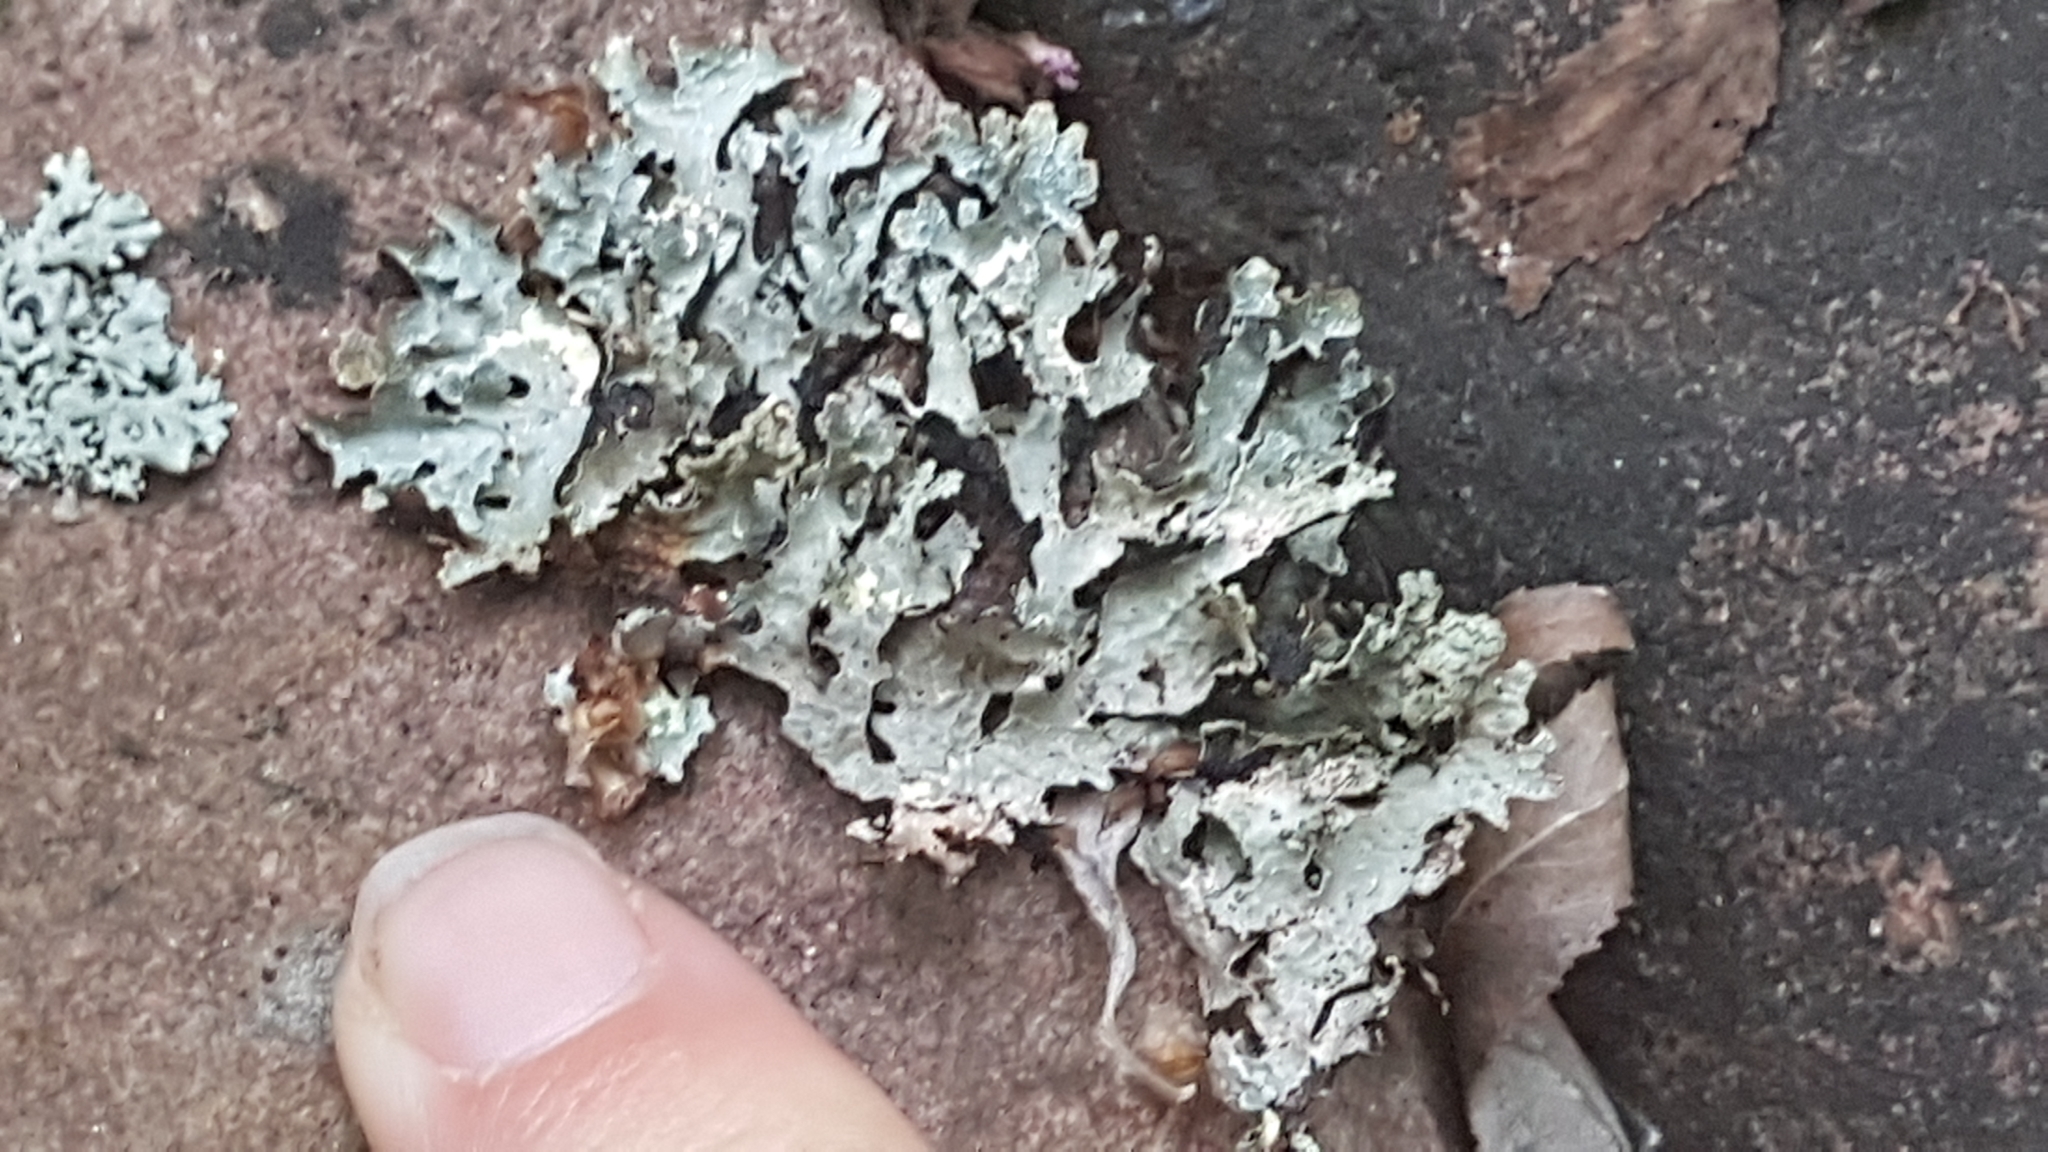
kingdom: Fungi
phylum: Ascomycota
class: Lecanoromycetes
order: Lecanorales
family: Parmeliaceae
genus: Parmelia
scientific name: Parmelia sulcata
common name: Netted shield lichen
